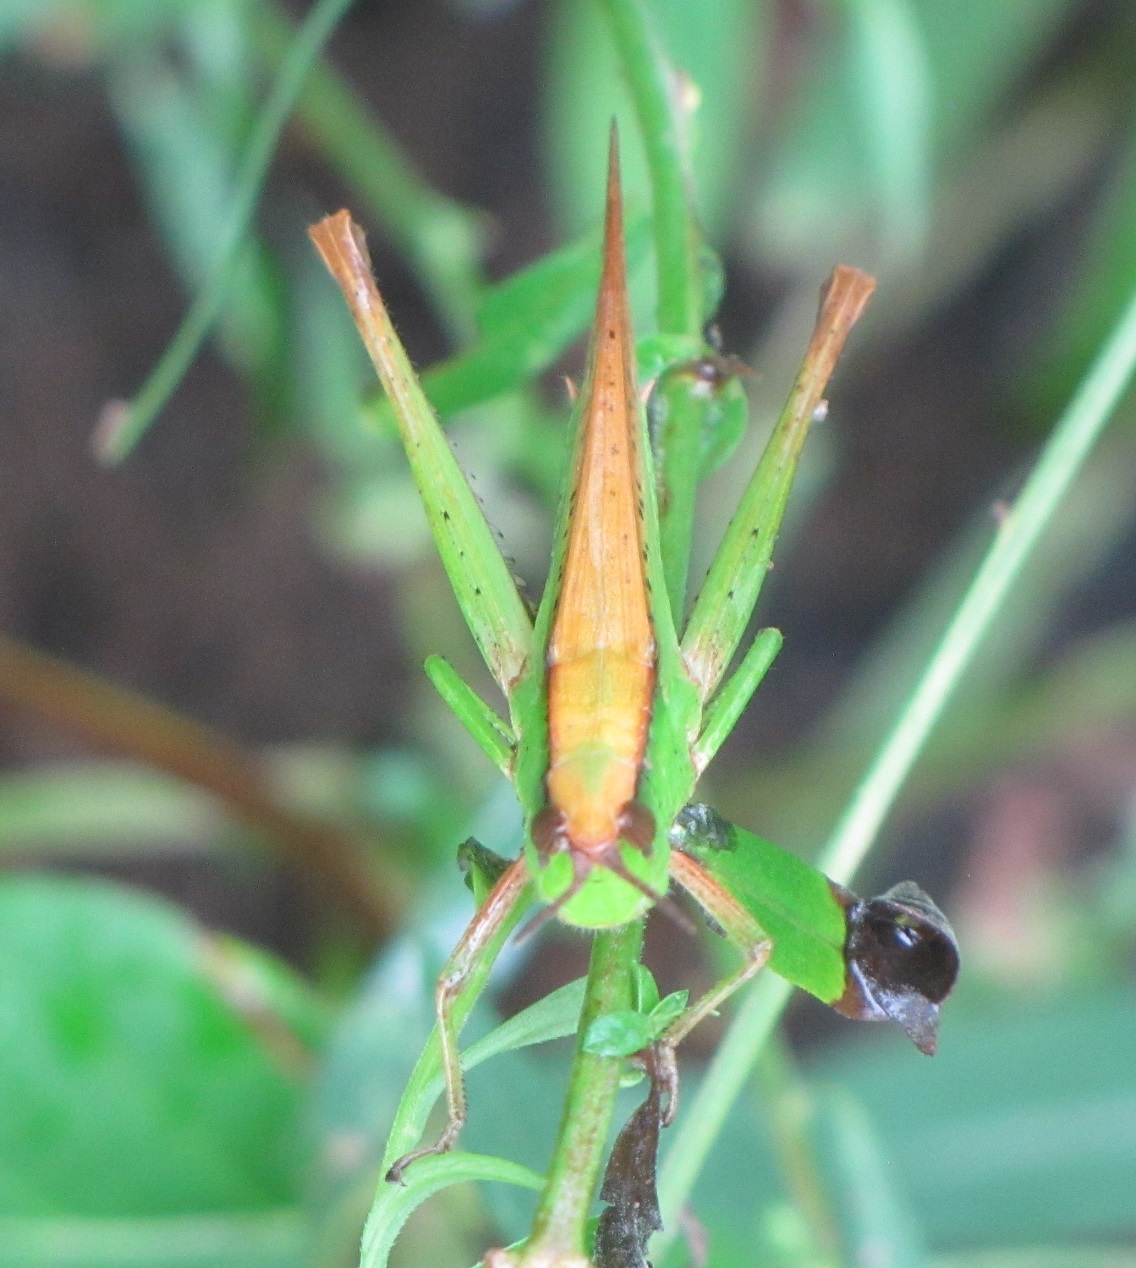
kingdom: Animalia
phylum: Arthropoda
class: Insecta
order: Orthoptera
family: Acrididae
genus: Metaleptea
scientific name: Metaleptea brevicornis
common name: Clipped-wing grasshopper
